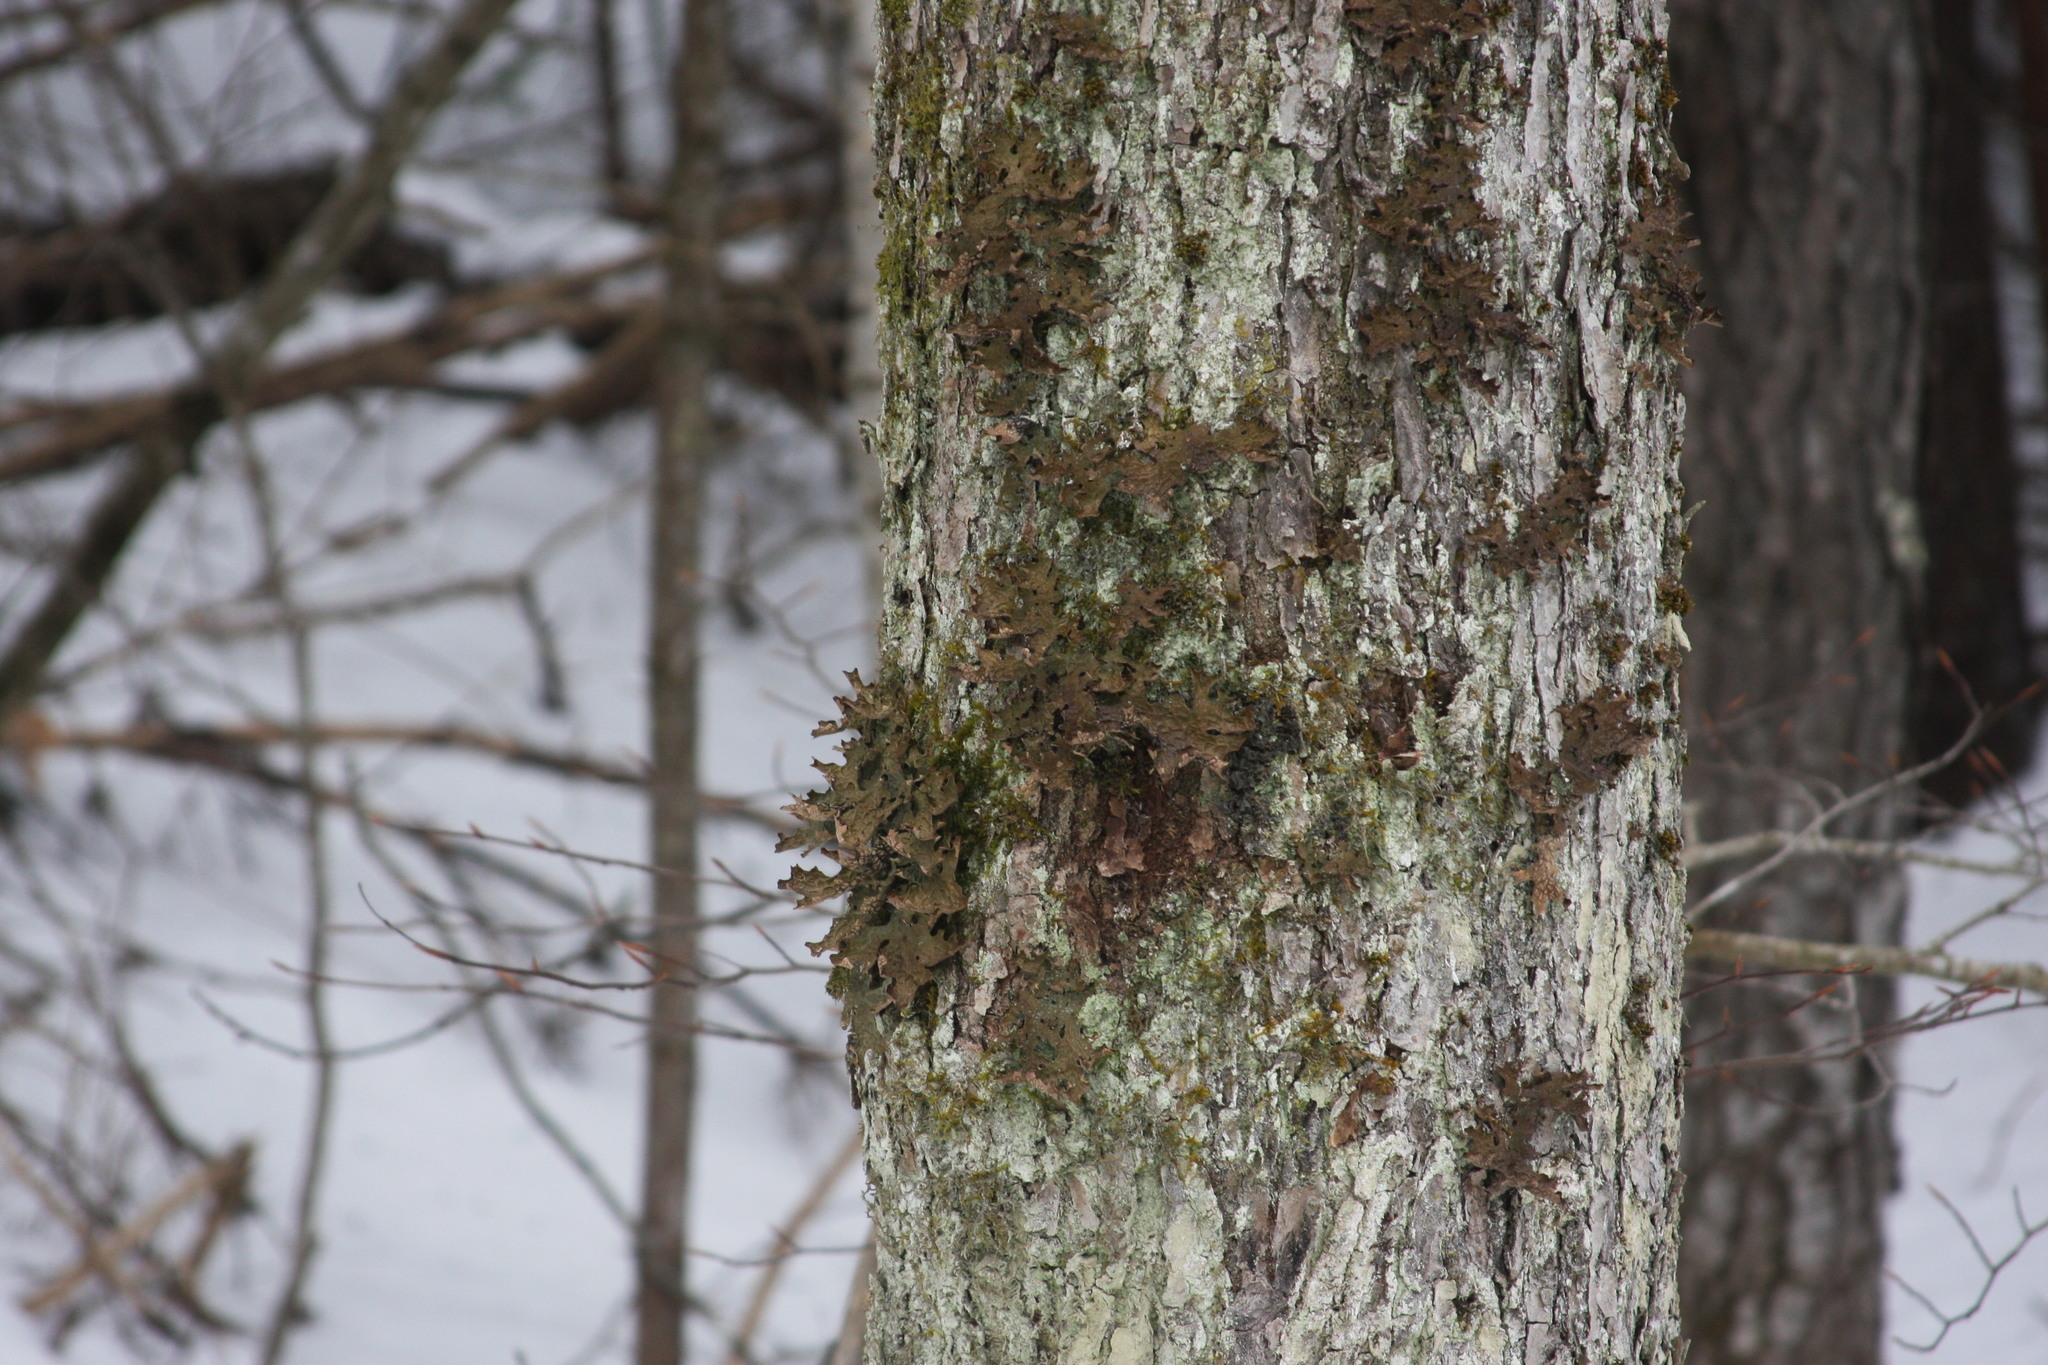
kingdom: Fungi
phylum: Ascomycota
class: Lecanoromycetes
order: Peltigerales
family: Lobariaceae
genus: Lobaria
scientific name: Lobaria pulmonaria
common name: Lungwort
